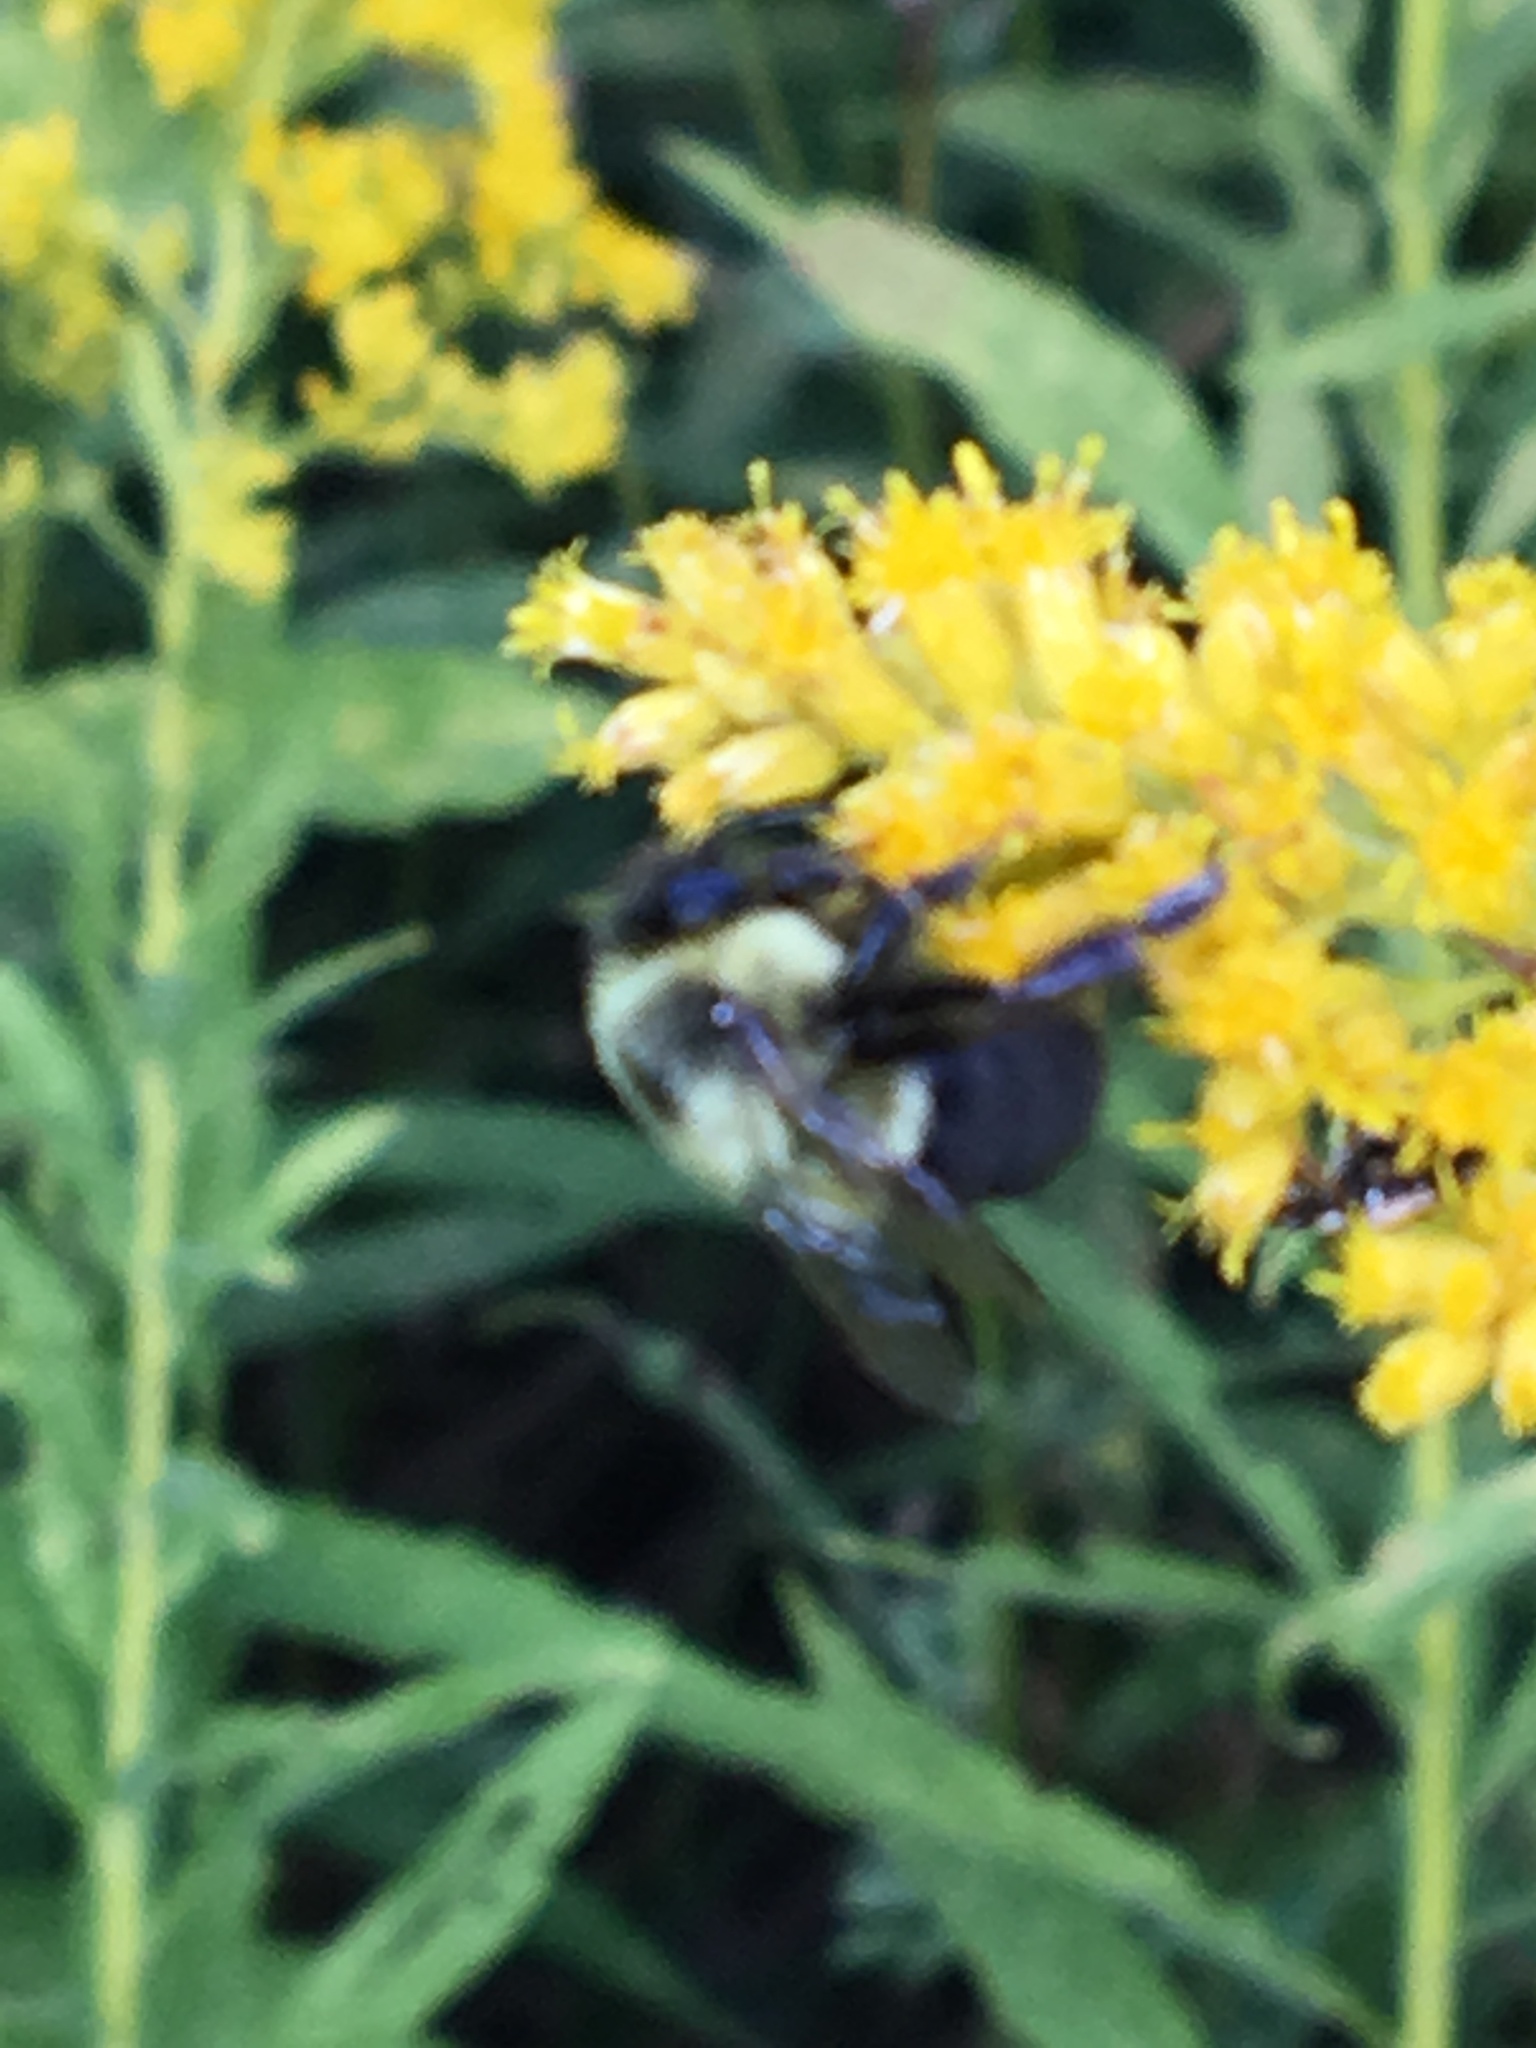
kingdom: Animalia
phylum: Arthropoda
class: Insecta
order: Hymenoptera
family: Apidae
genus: Bombus
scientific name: Bombus impatiens
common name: Common eastern bumble bee
